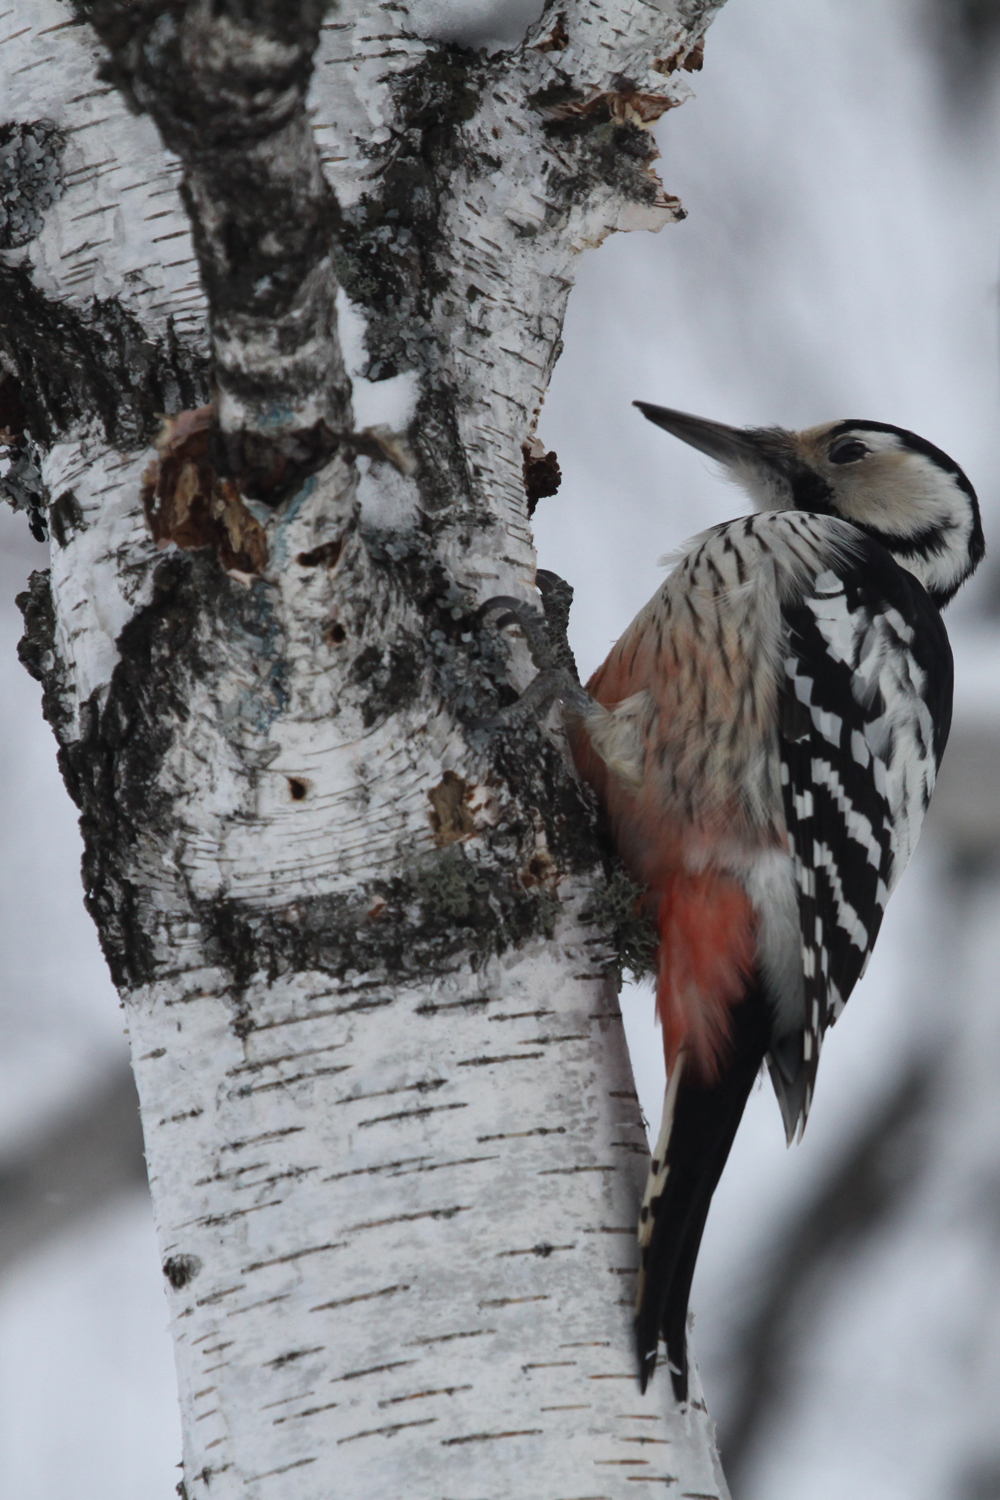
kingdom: Animalia
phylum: Chordata
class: Aves
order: Piciformes
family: Picidae
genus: Dendrocopos
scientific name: Dendrocopos leucotos
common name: White-backed woodpecker
